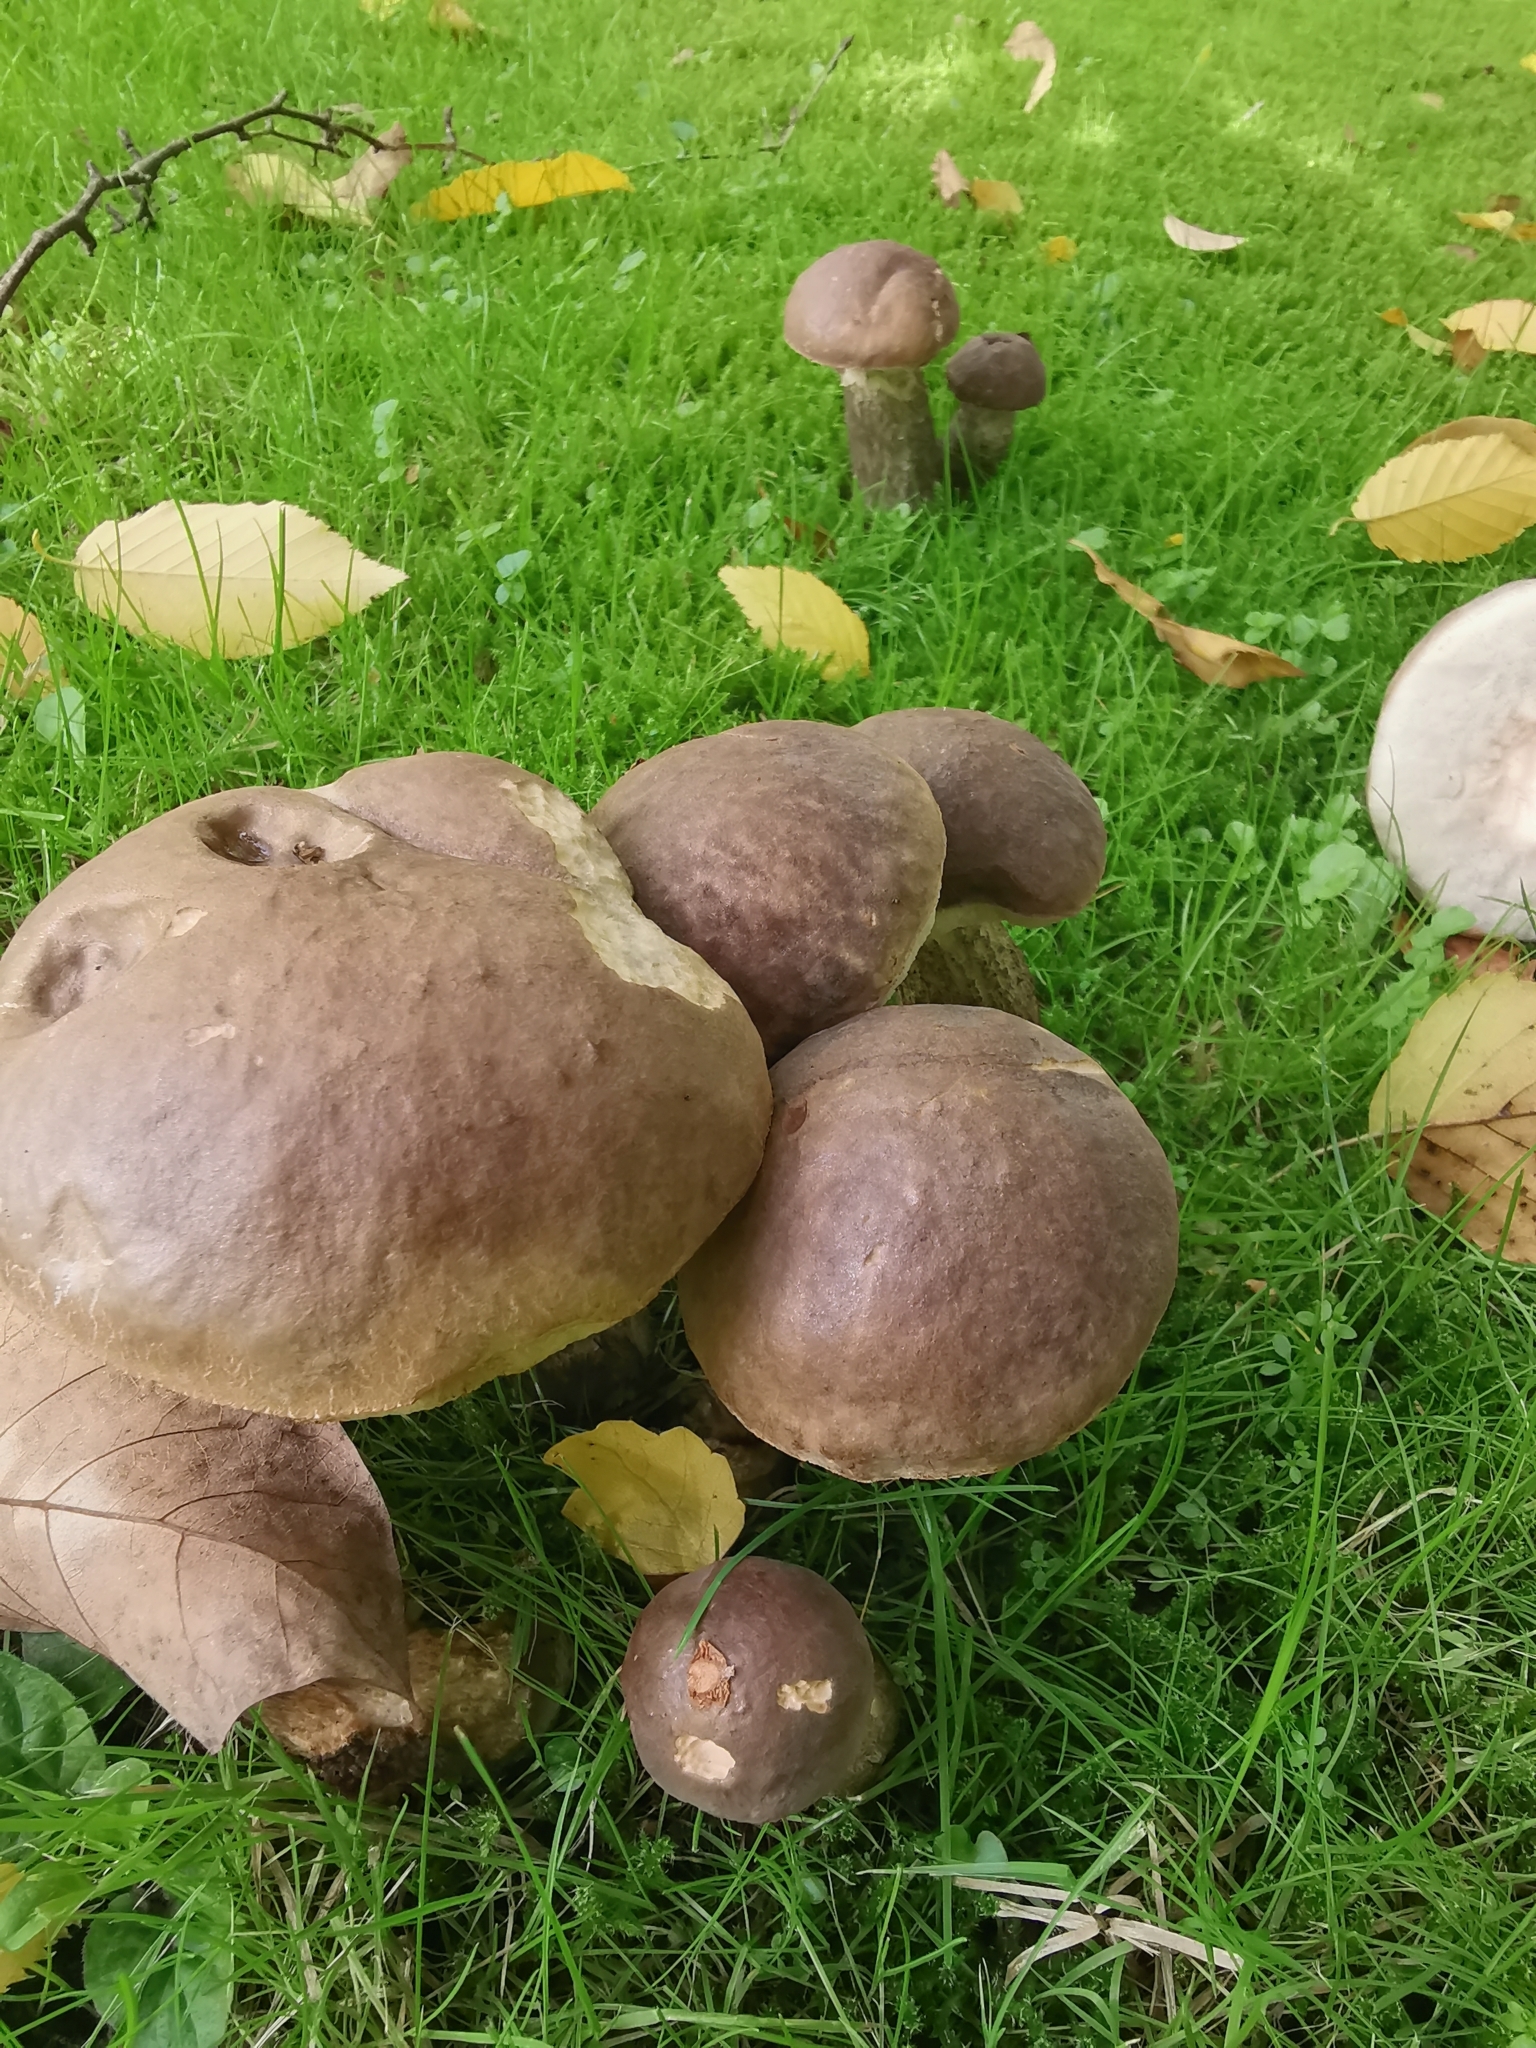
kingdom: Fungi
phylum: Basidiomycota
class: Agaricomycetes
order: Boletales
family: Boletaceae
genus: Leccinum
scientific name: Leccinum scabrum
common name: Blushing bolete
